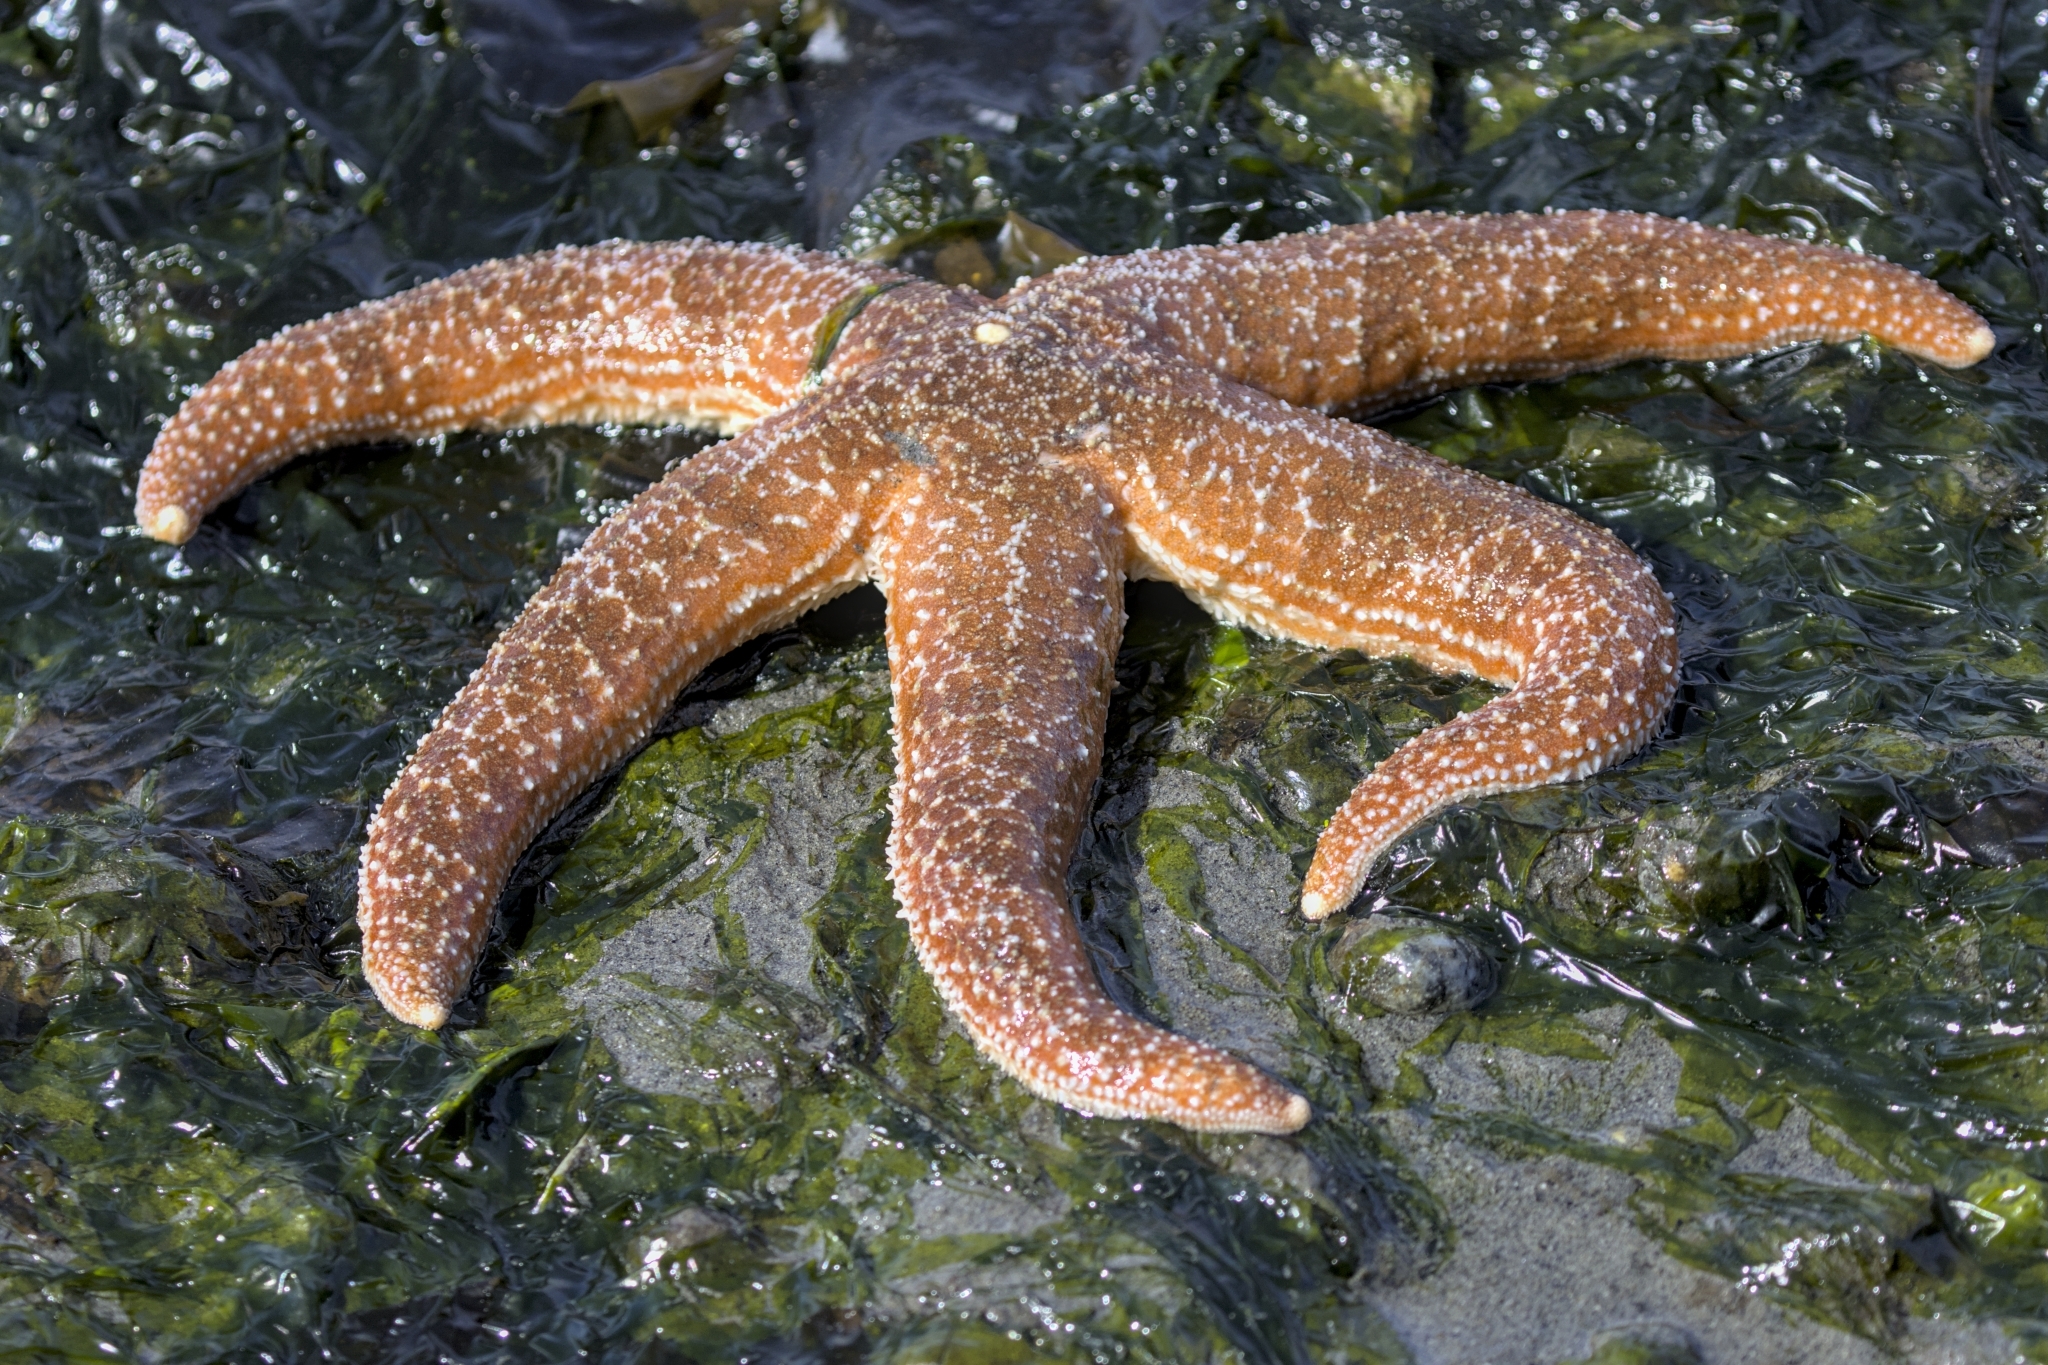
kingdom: Animalia
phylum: Echinodermata
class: Asteroidea
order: Forcipulatida
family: Asteriidae
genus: Evasterias
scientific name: Evasterias troschelii
